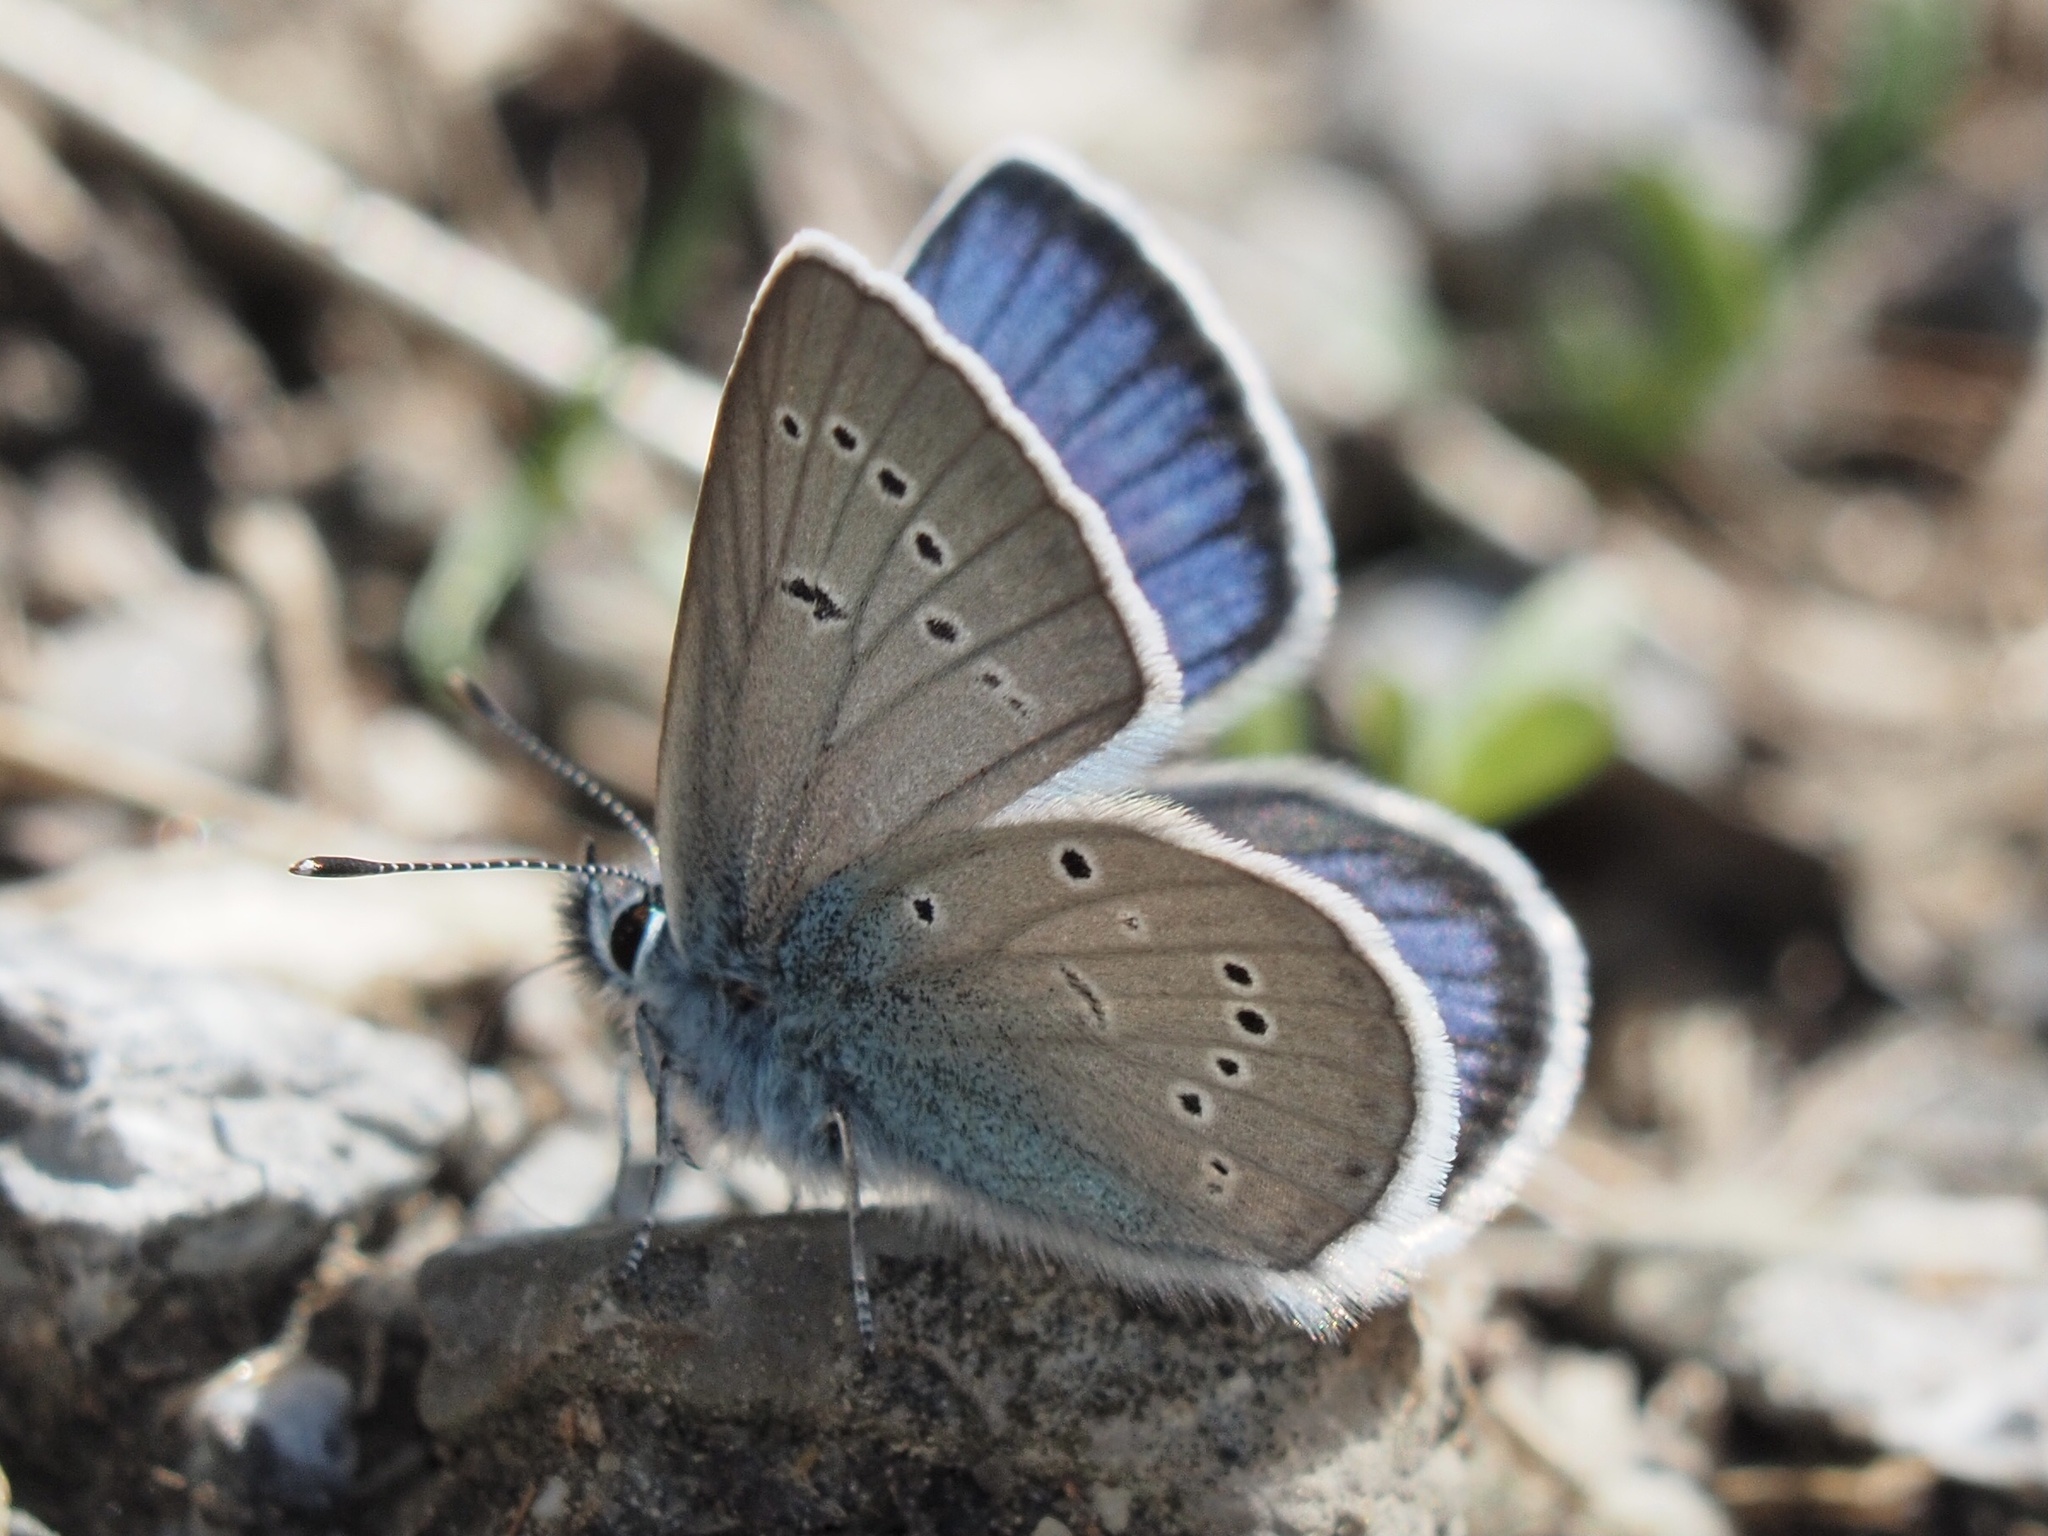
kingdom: Animalia
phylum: Arthropoda
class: Insecta
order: Lepidoptera
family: Lycaenidae
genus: Cyaniris
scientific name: Cyaniris semiargus
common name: Mazarine blue
